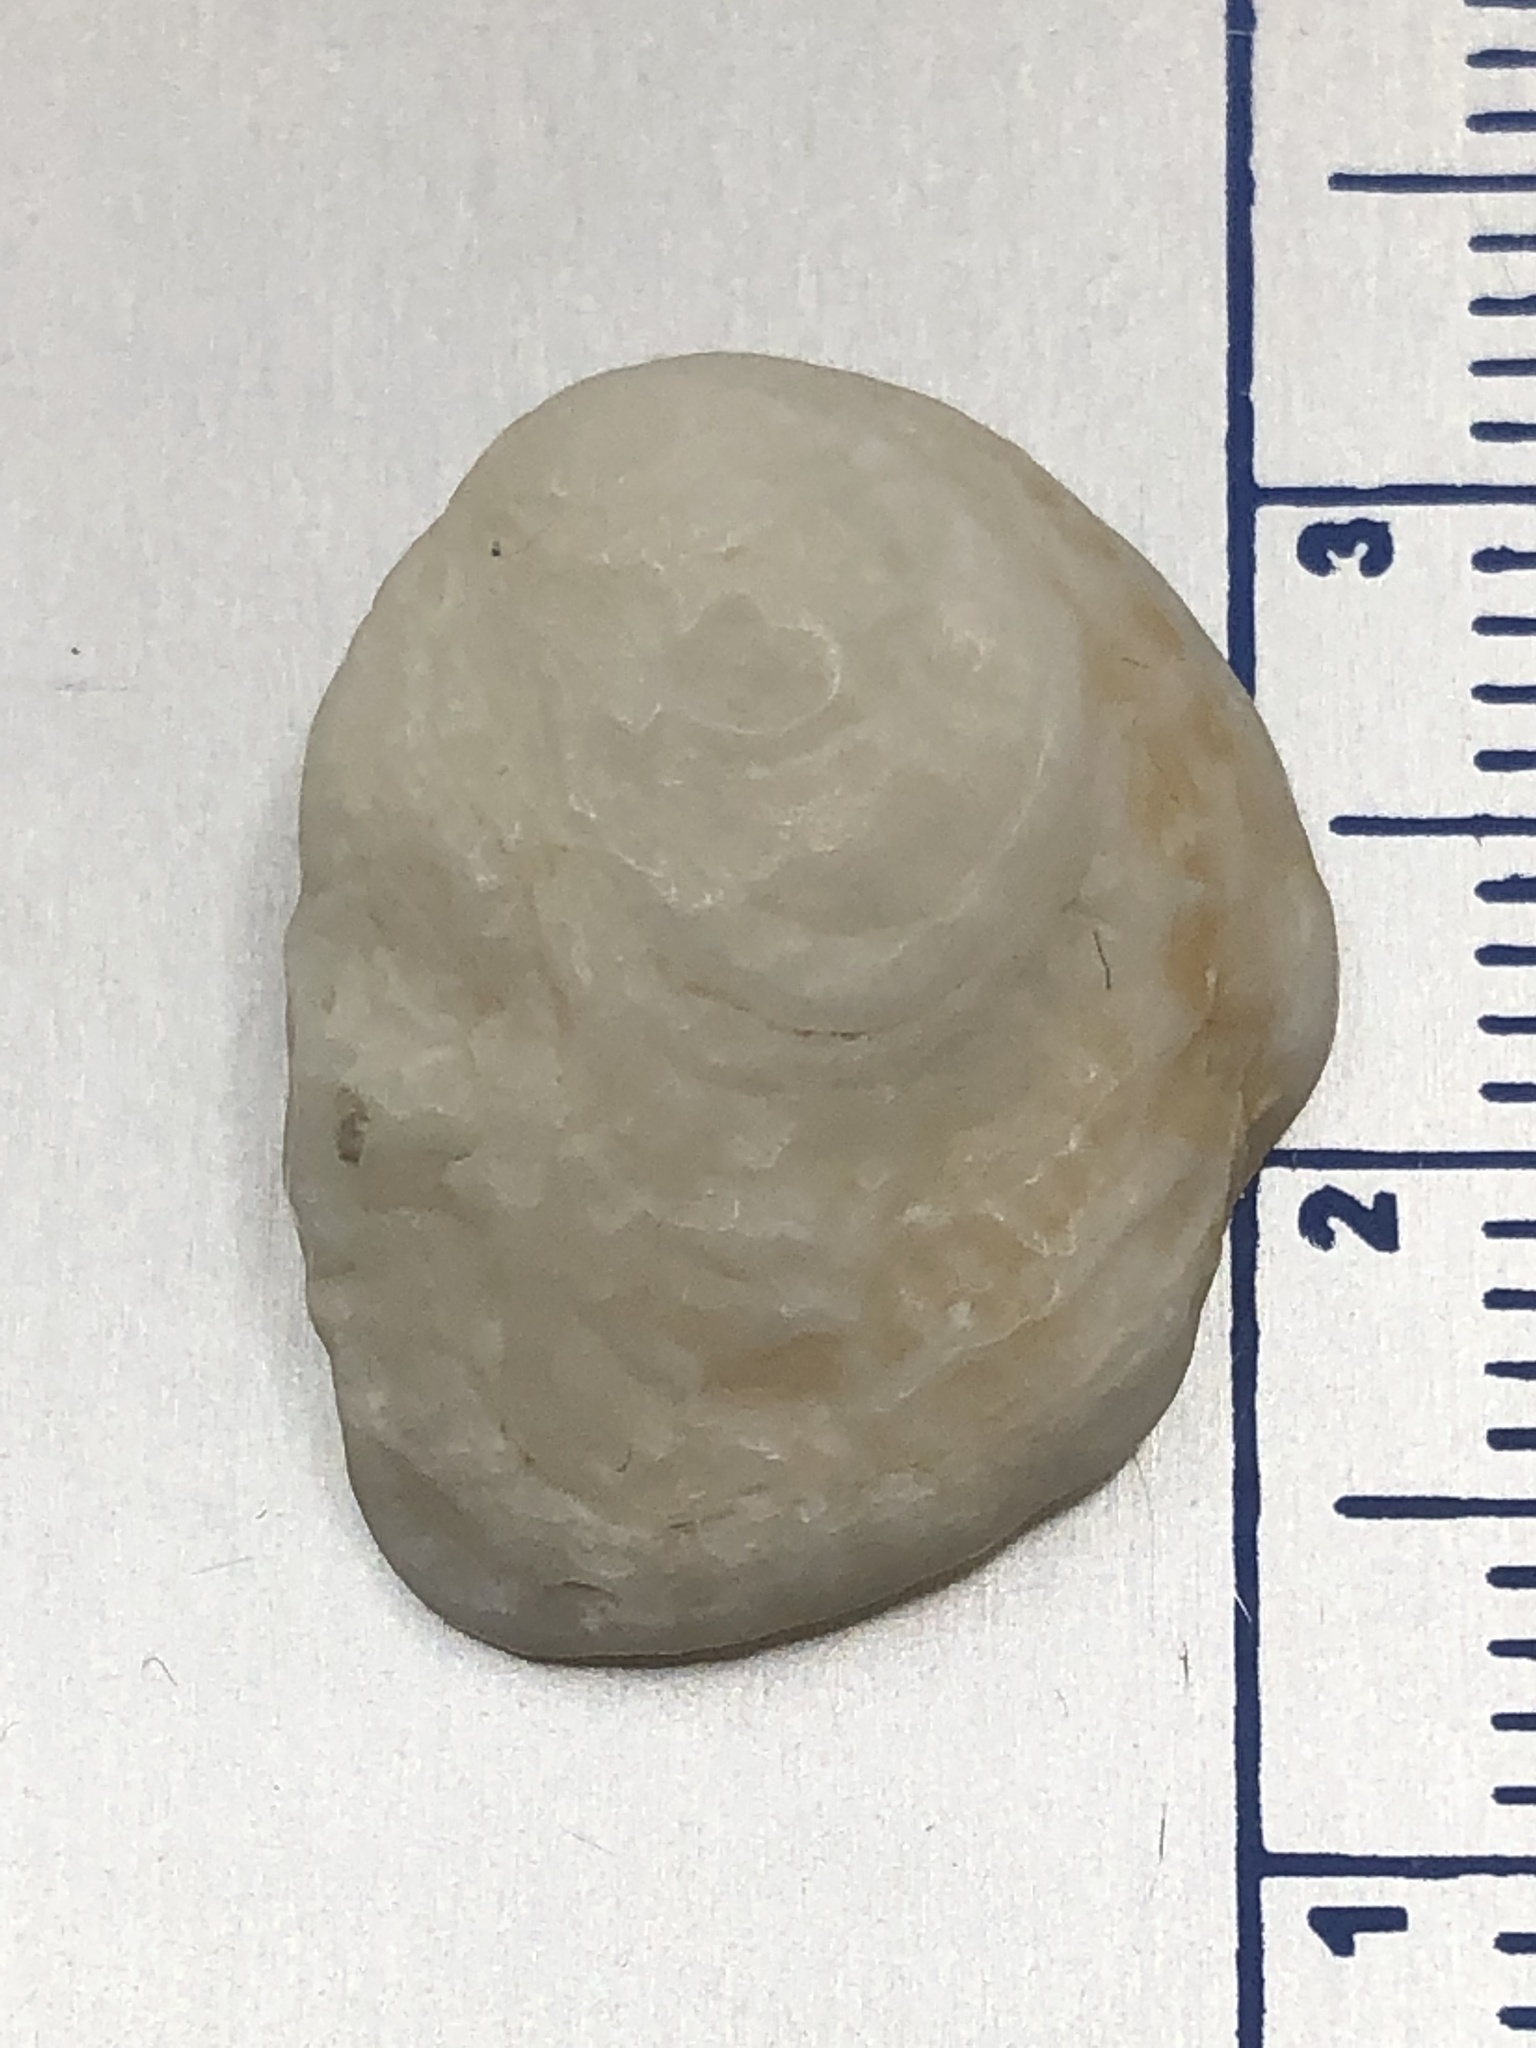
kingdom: Animalia
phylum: Mollusca
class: Bivalvia
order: Venerida
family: Chamidae
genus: Chama
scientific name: Chama congregata
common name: Corrugate jewelbox
